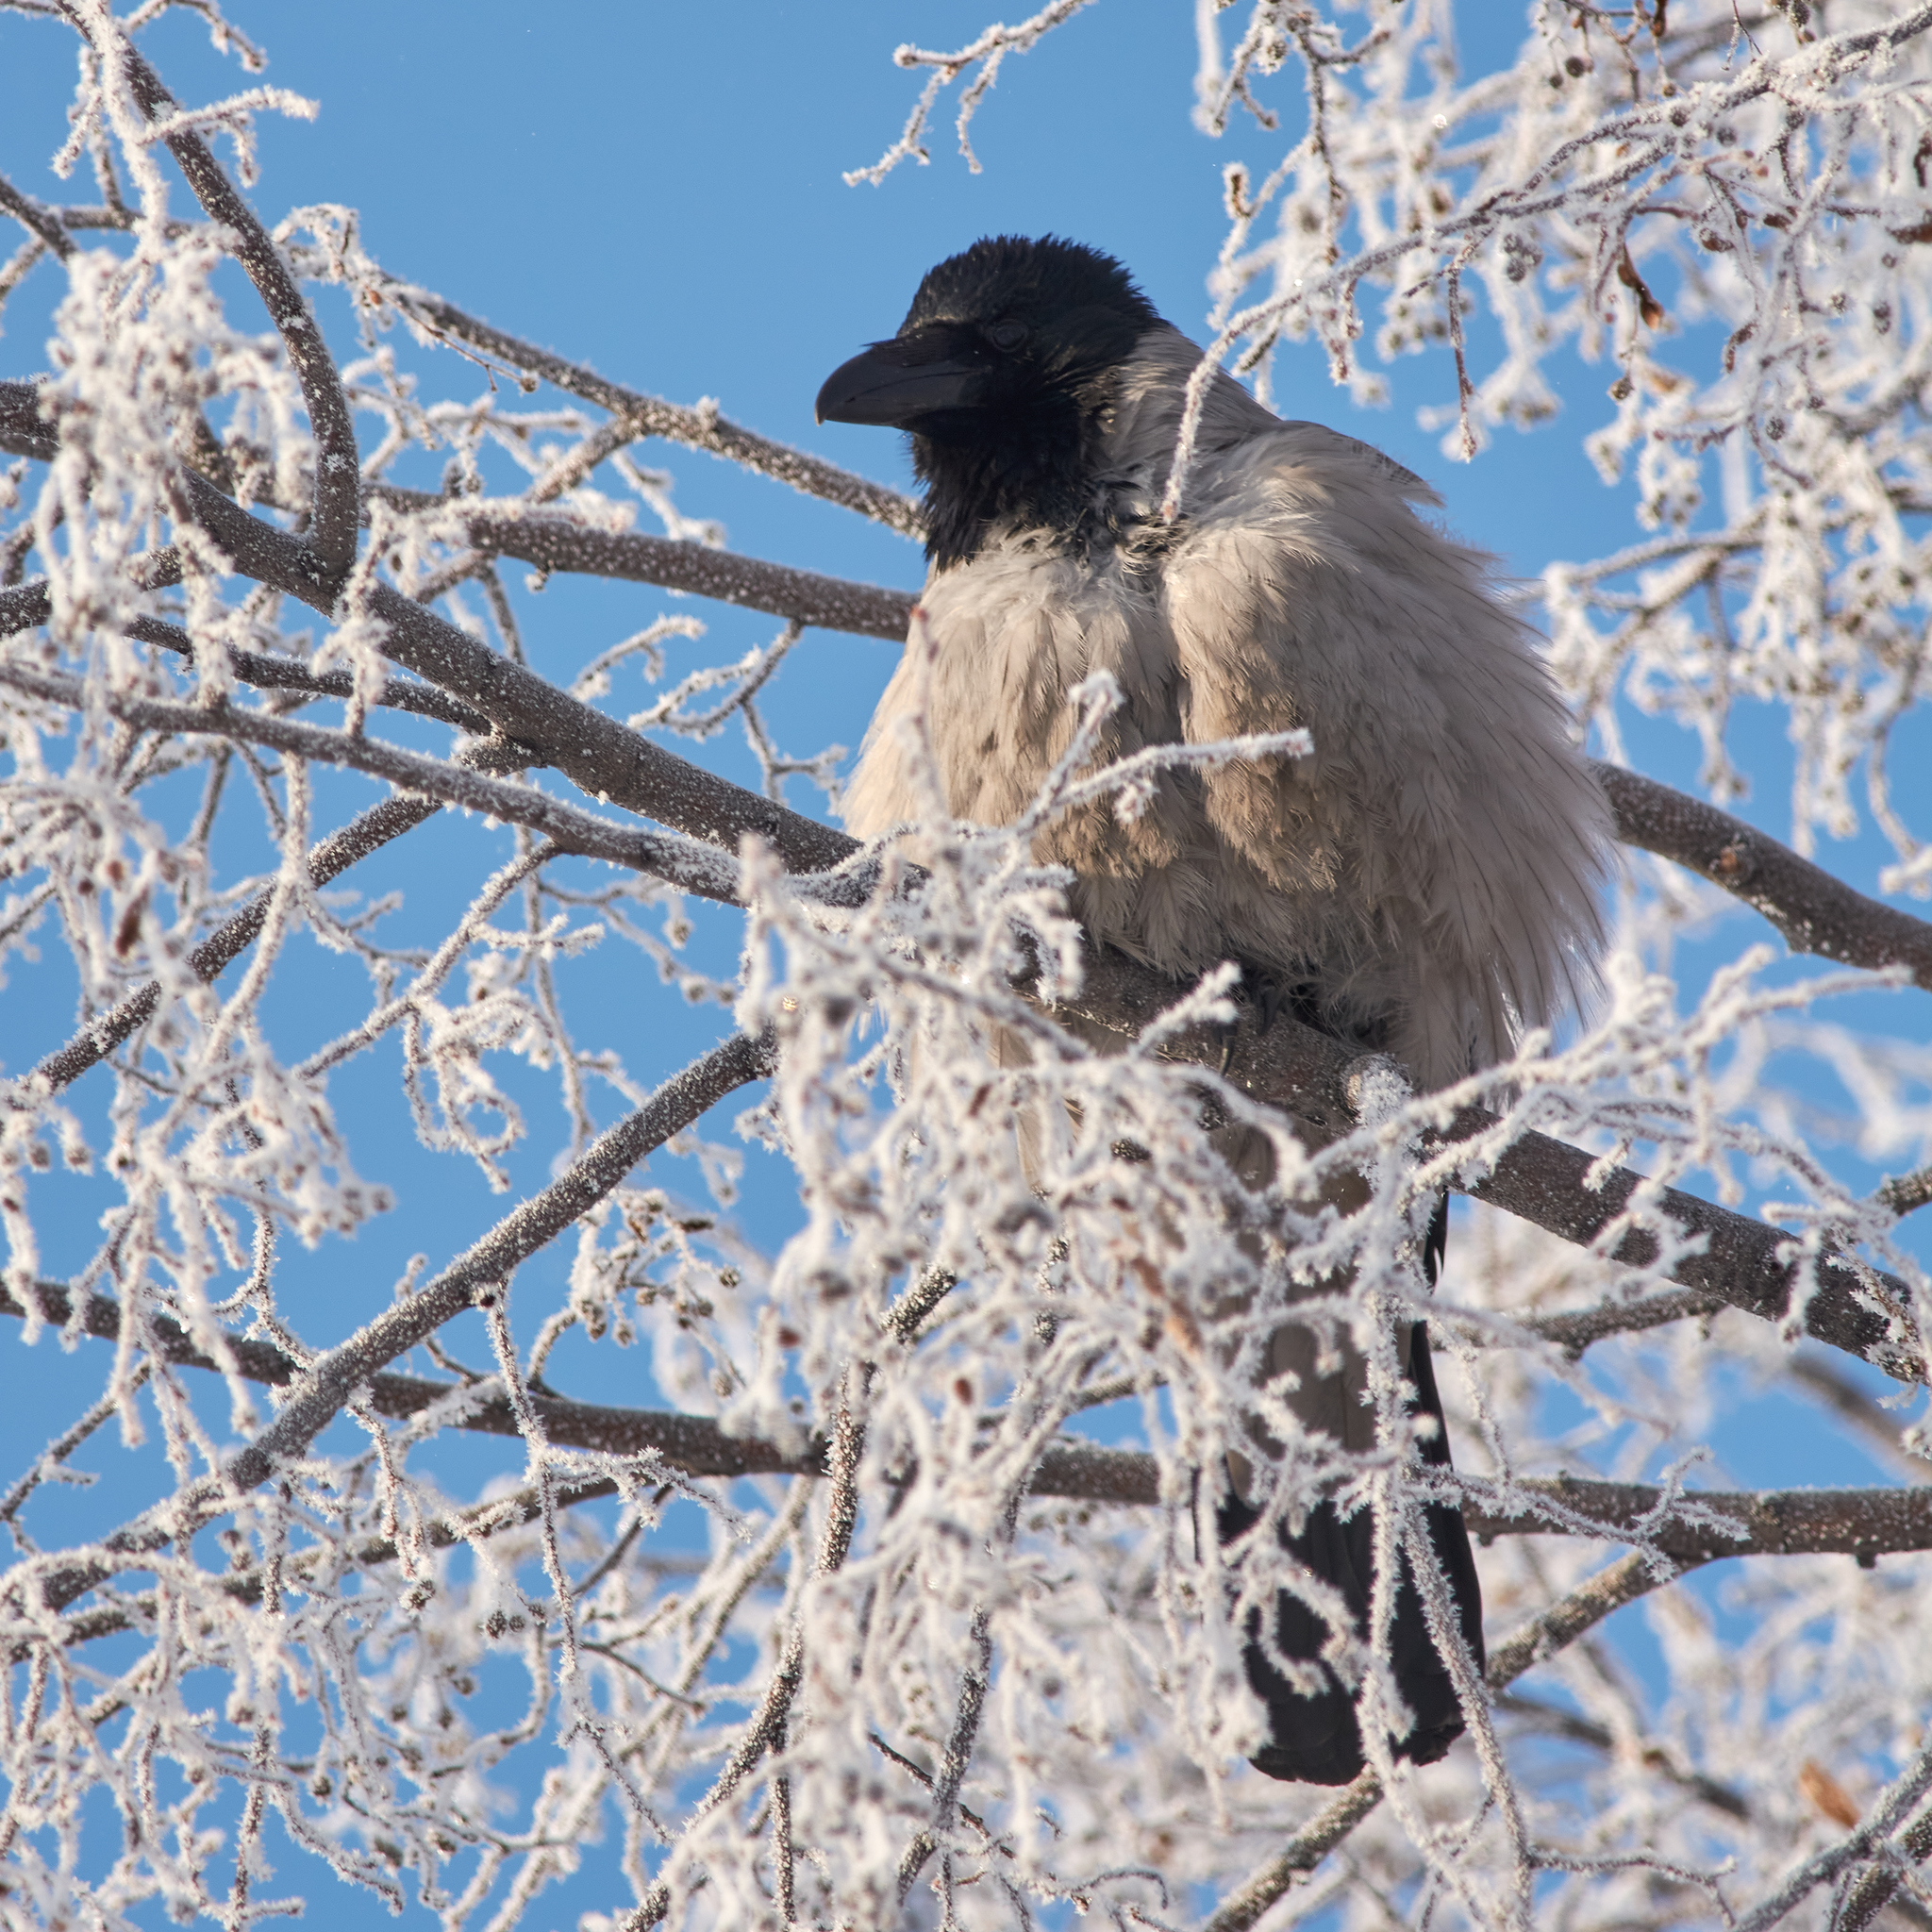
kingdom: Animalia
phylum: Chordata
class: Aves
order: Passeriformes
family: Corvidae
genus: Corvus
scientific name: Corvus cornix
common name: Hooded crow
